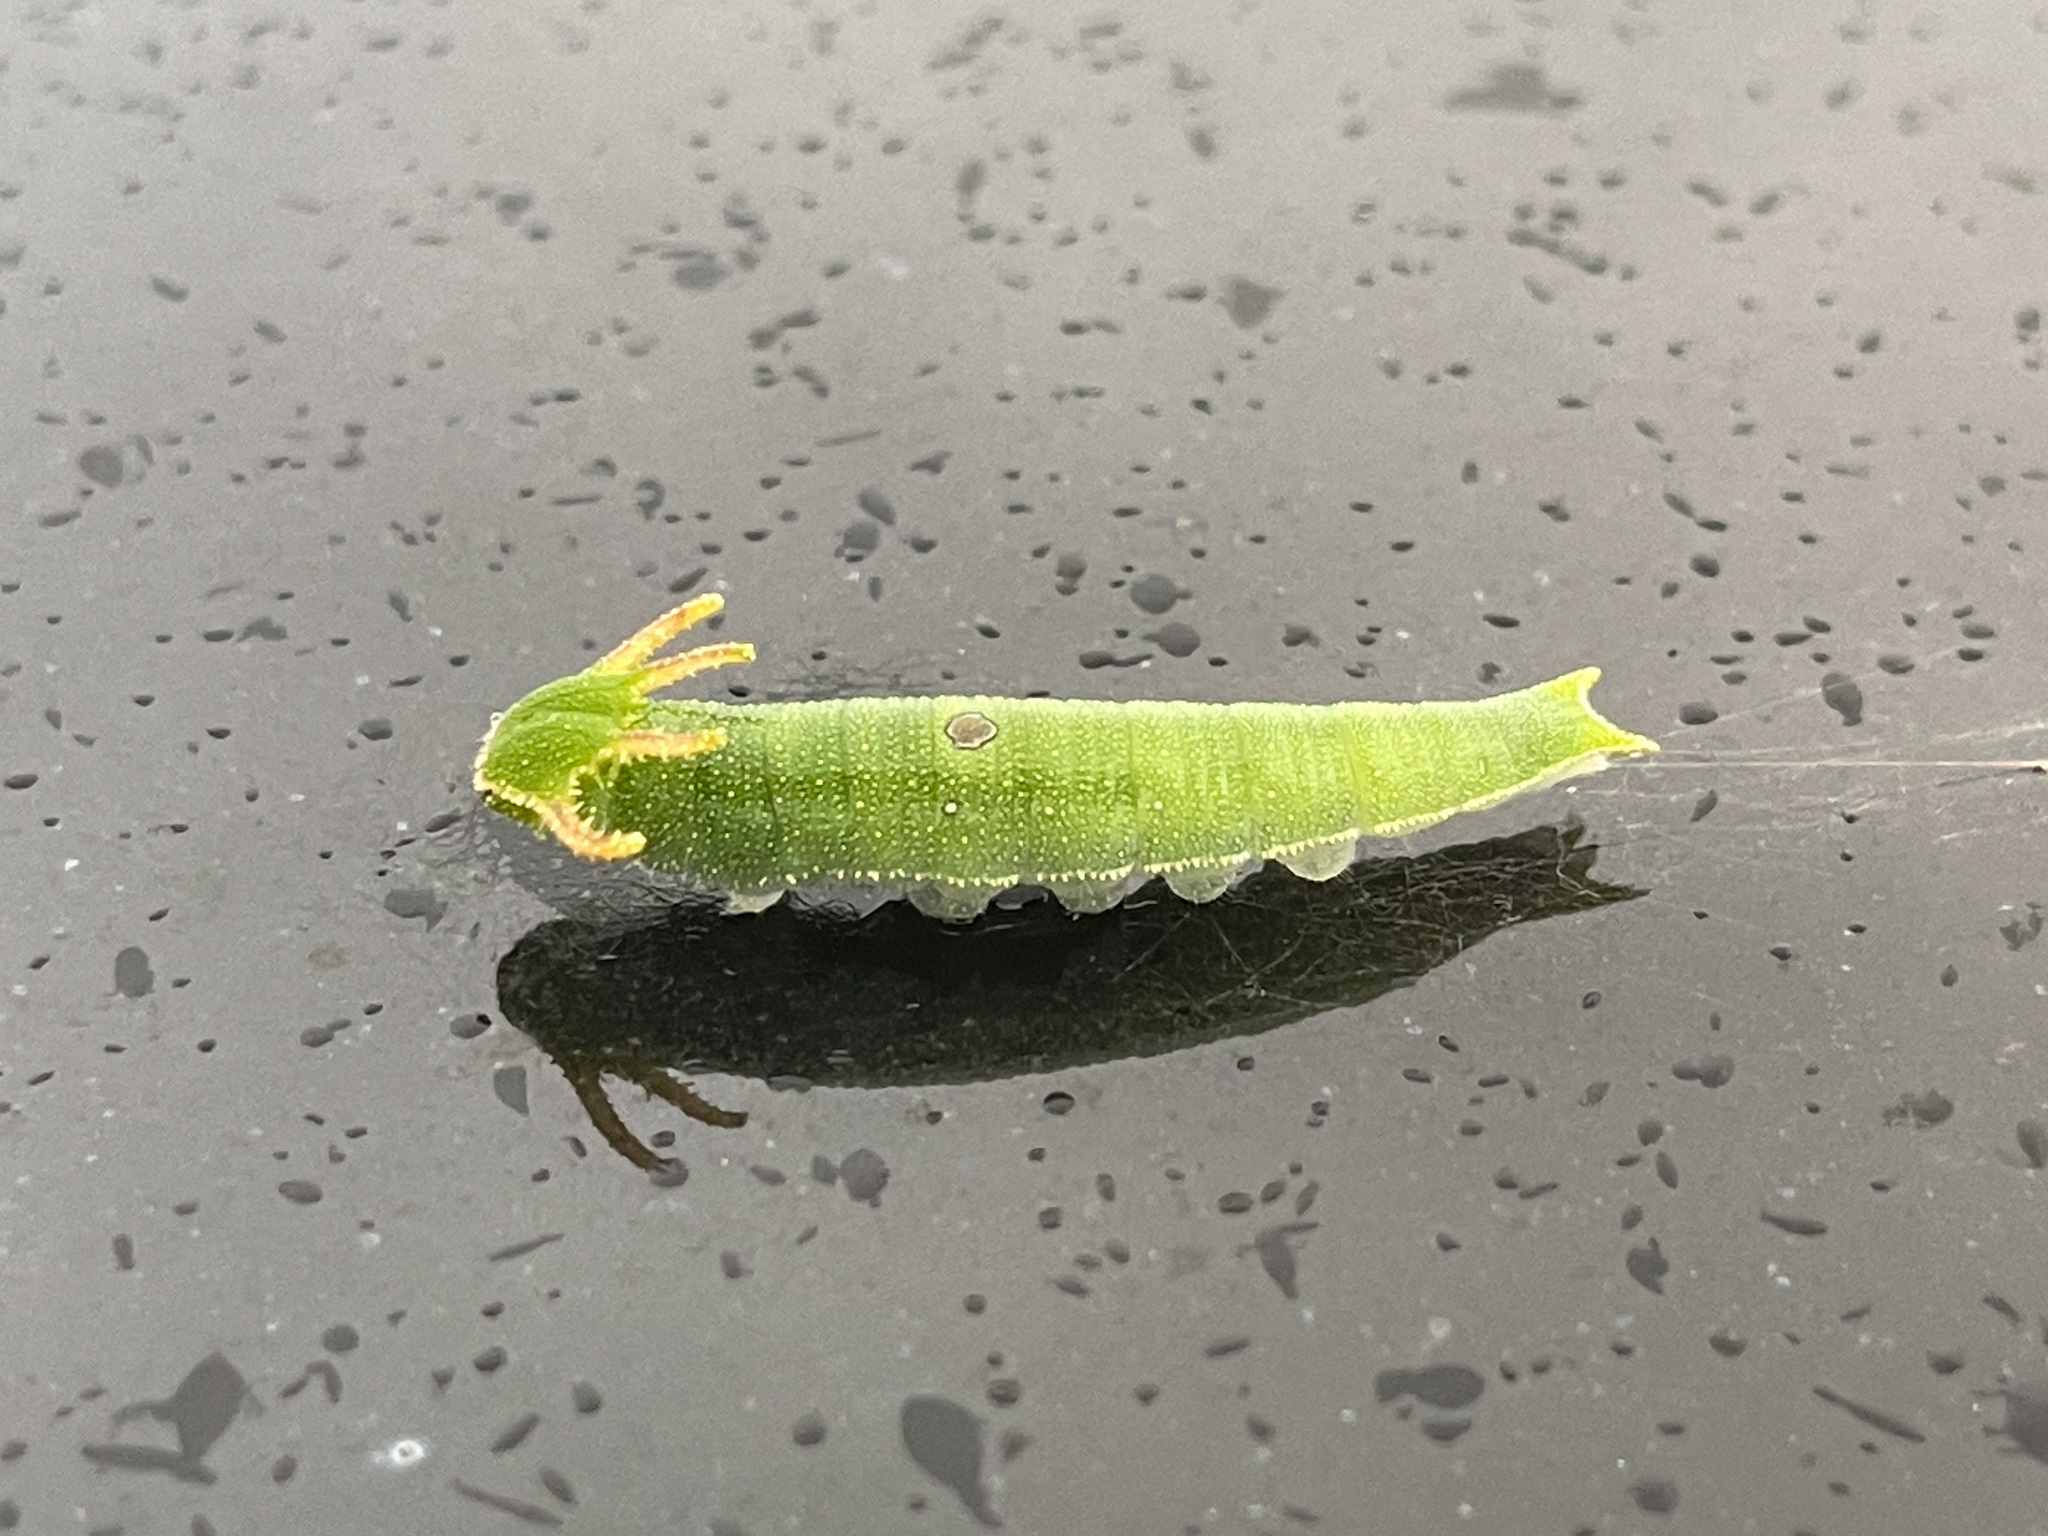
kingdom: Animalia
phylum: Arthropoda
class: Insecta
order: Lepidoptera
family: Nymphalidae
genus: Charaxes
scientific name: Charaxes bernardus
